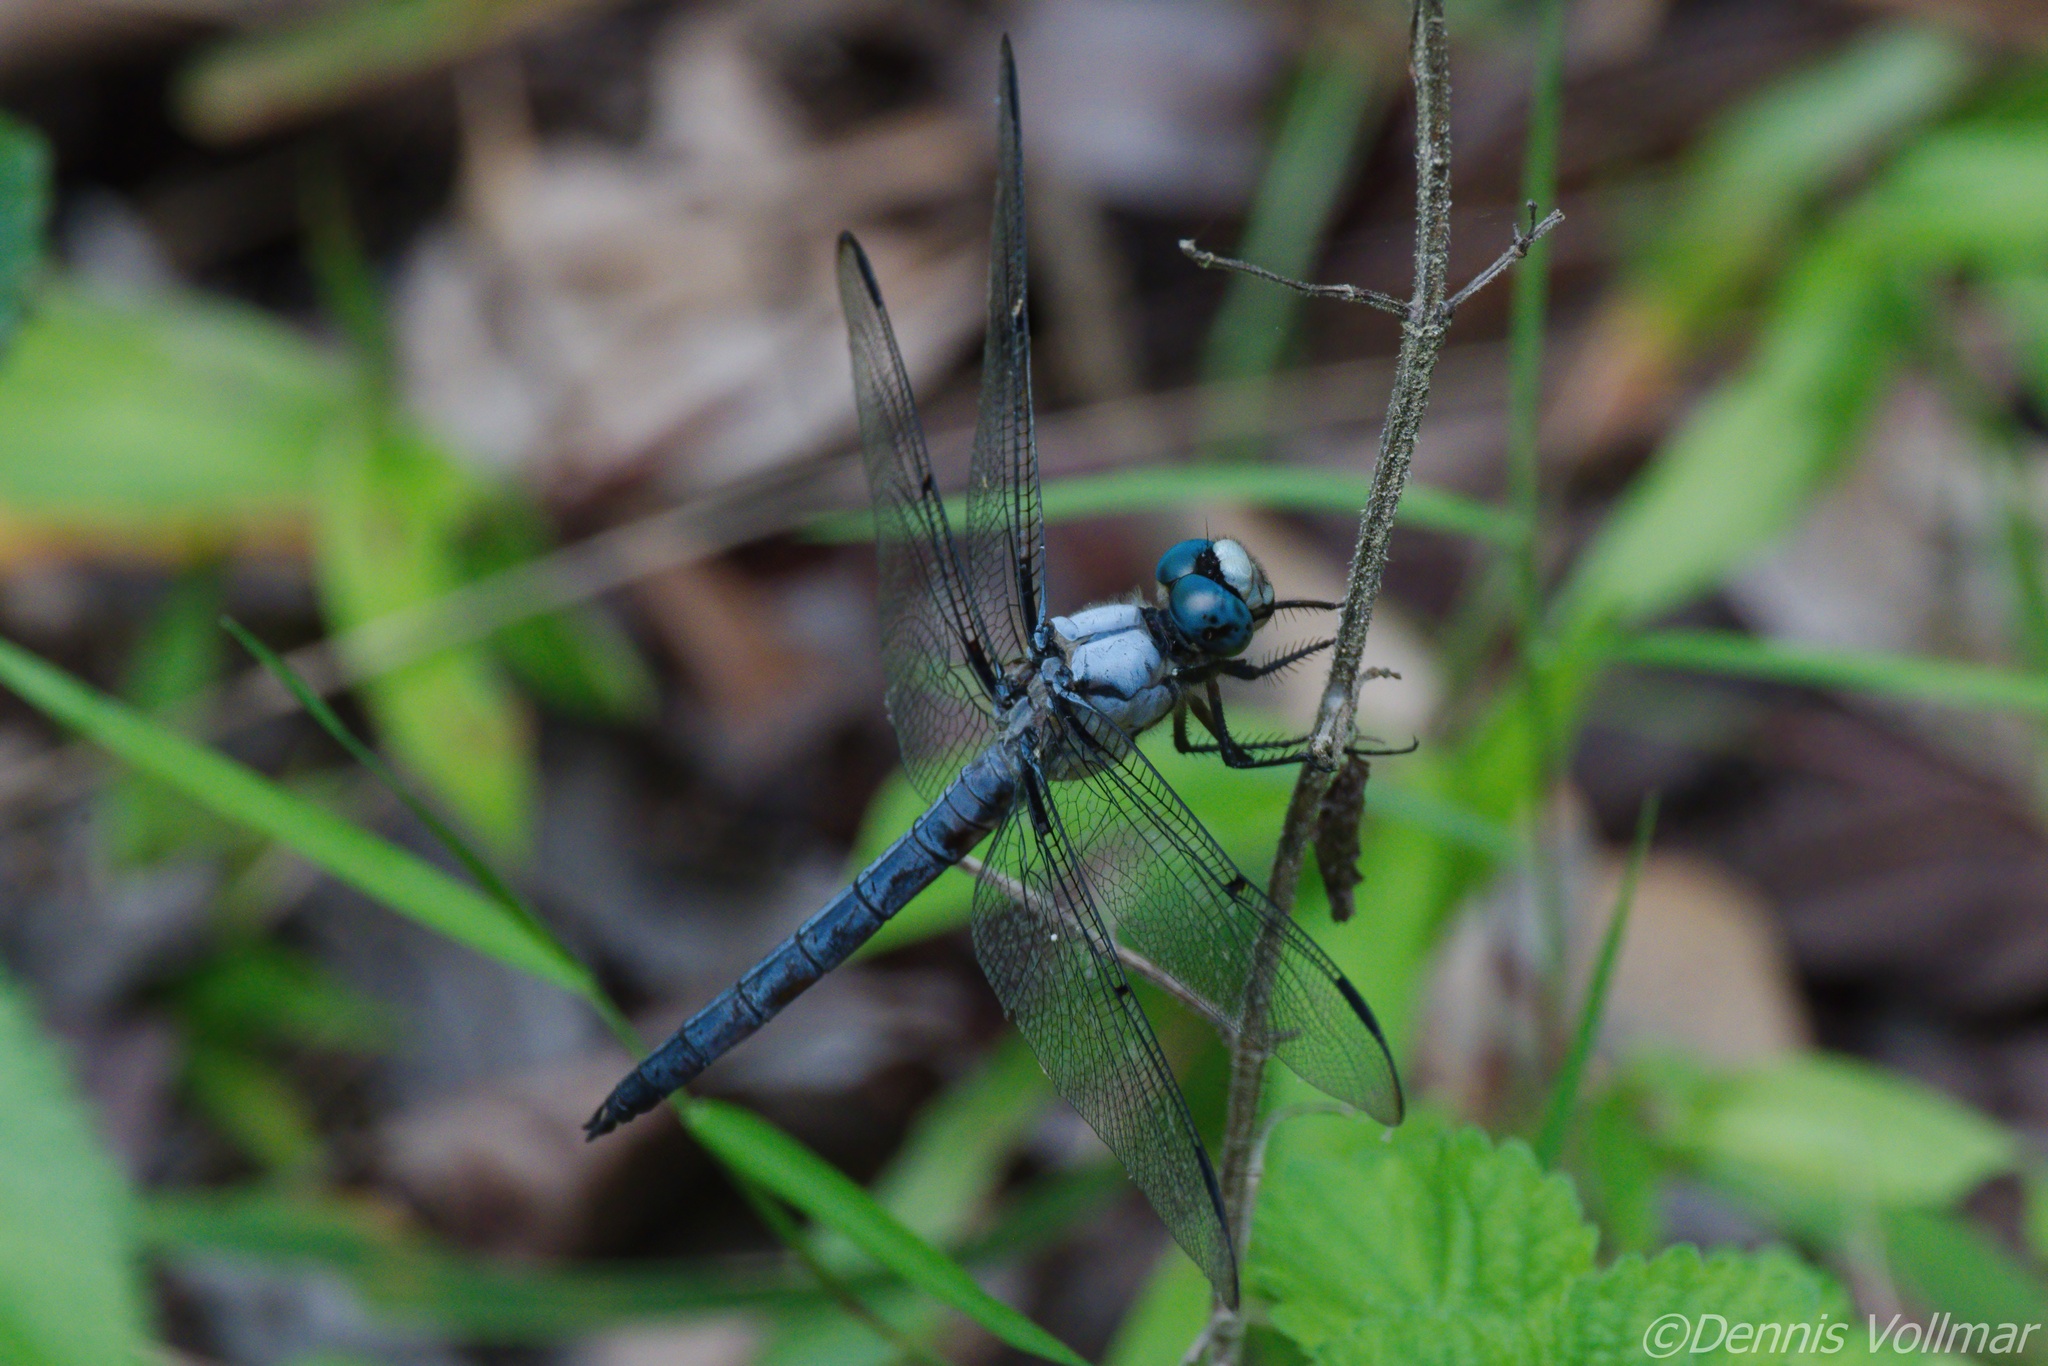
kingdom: Animalia
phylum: Arthropoda
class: Insecta
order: Odonata
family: Libellulidae
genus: Libellula
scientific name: Libellula vibrans
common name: Great blue skimmer
